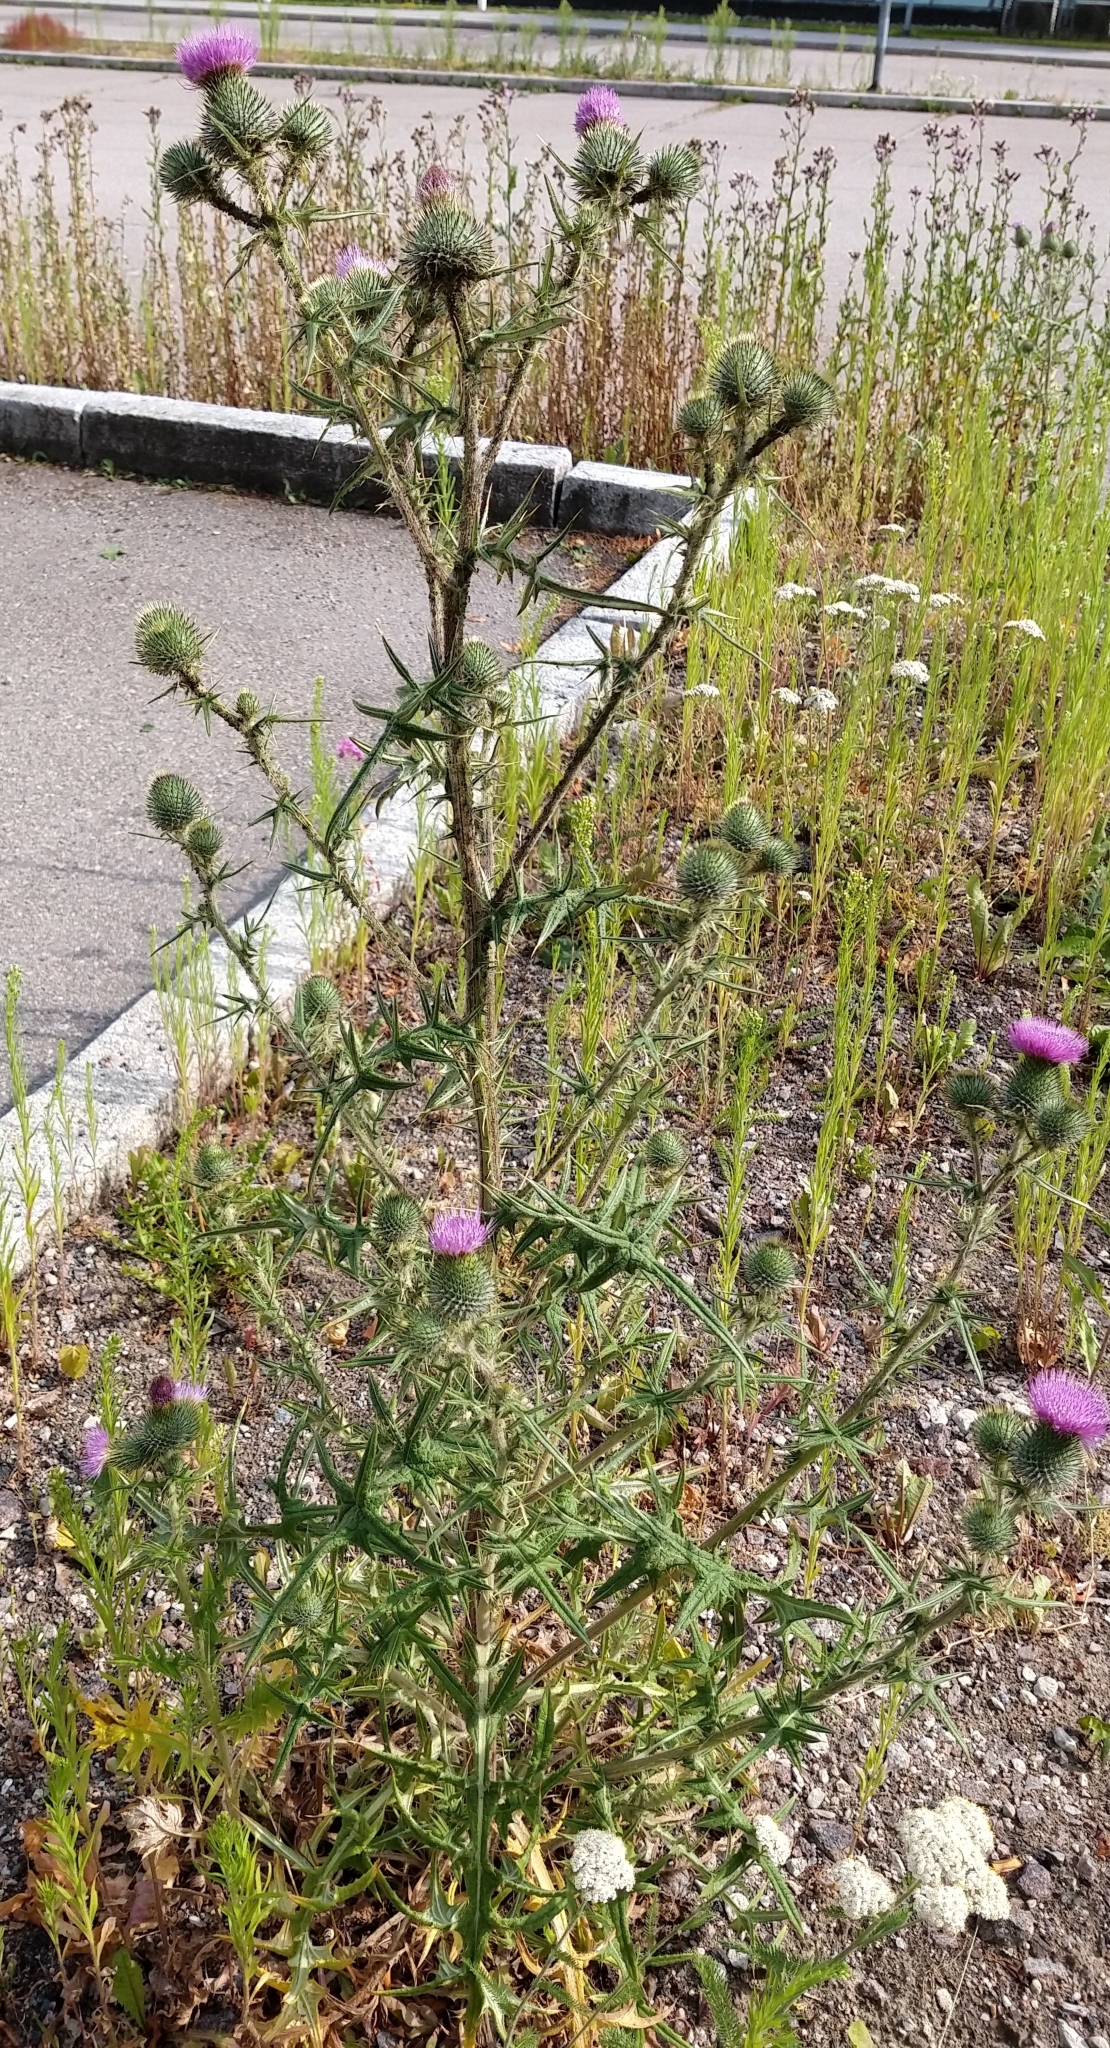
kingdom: Plantae
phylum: Tracheophyta
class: Magnoliopsida
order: Asterales
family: Asteraceae
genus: Cirsium
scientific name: Cirsium vulgare
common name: Bull thistle
